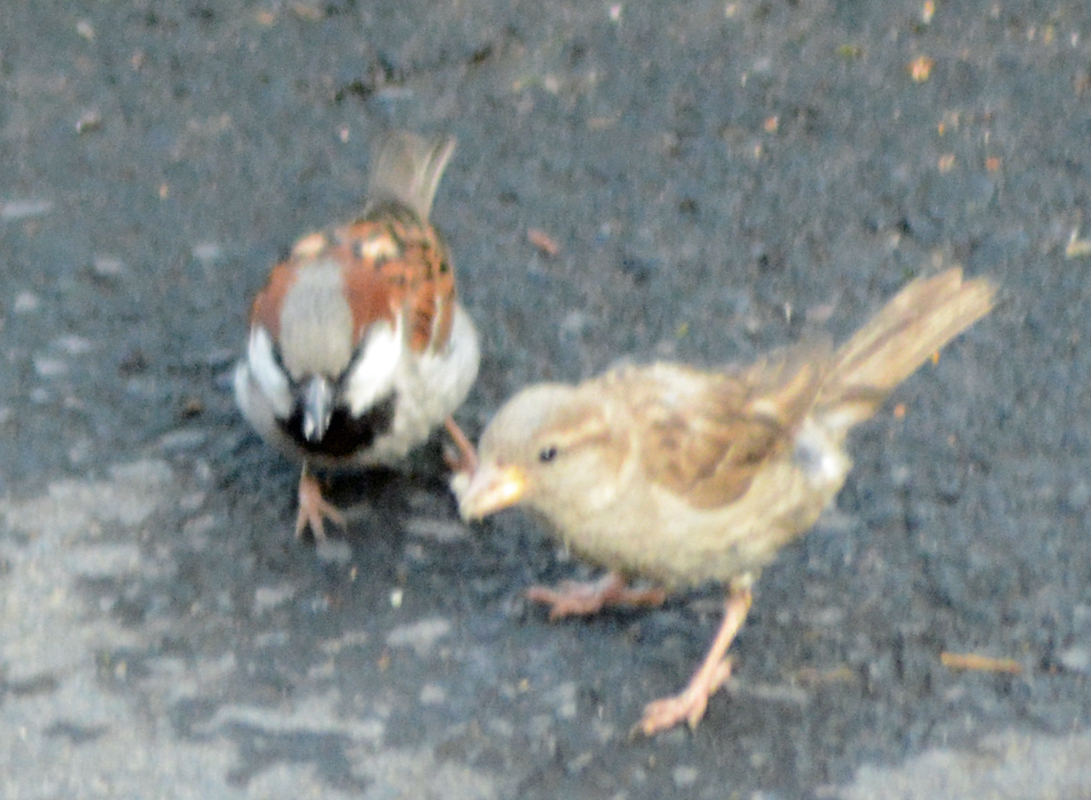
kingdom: Animalia
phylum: Chordata
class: Aves
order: Passeriformes
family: Passeridae
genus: Passer
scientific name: Passer domesticus
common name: House sparrow
